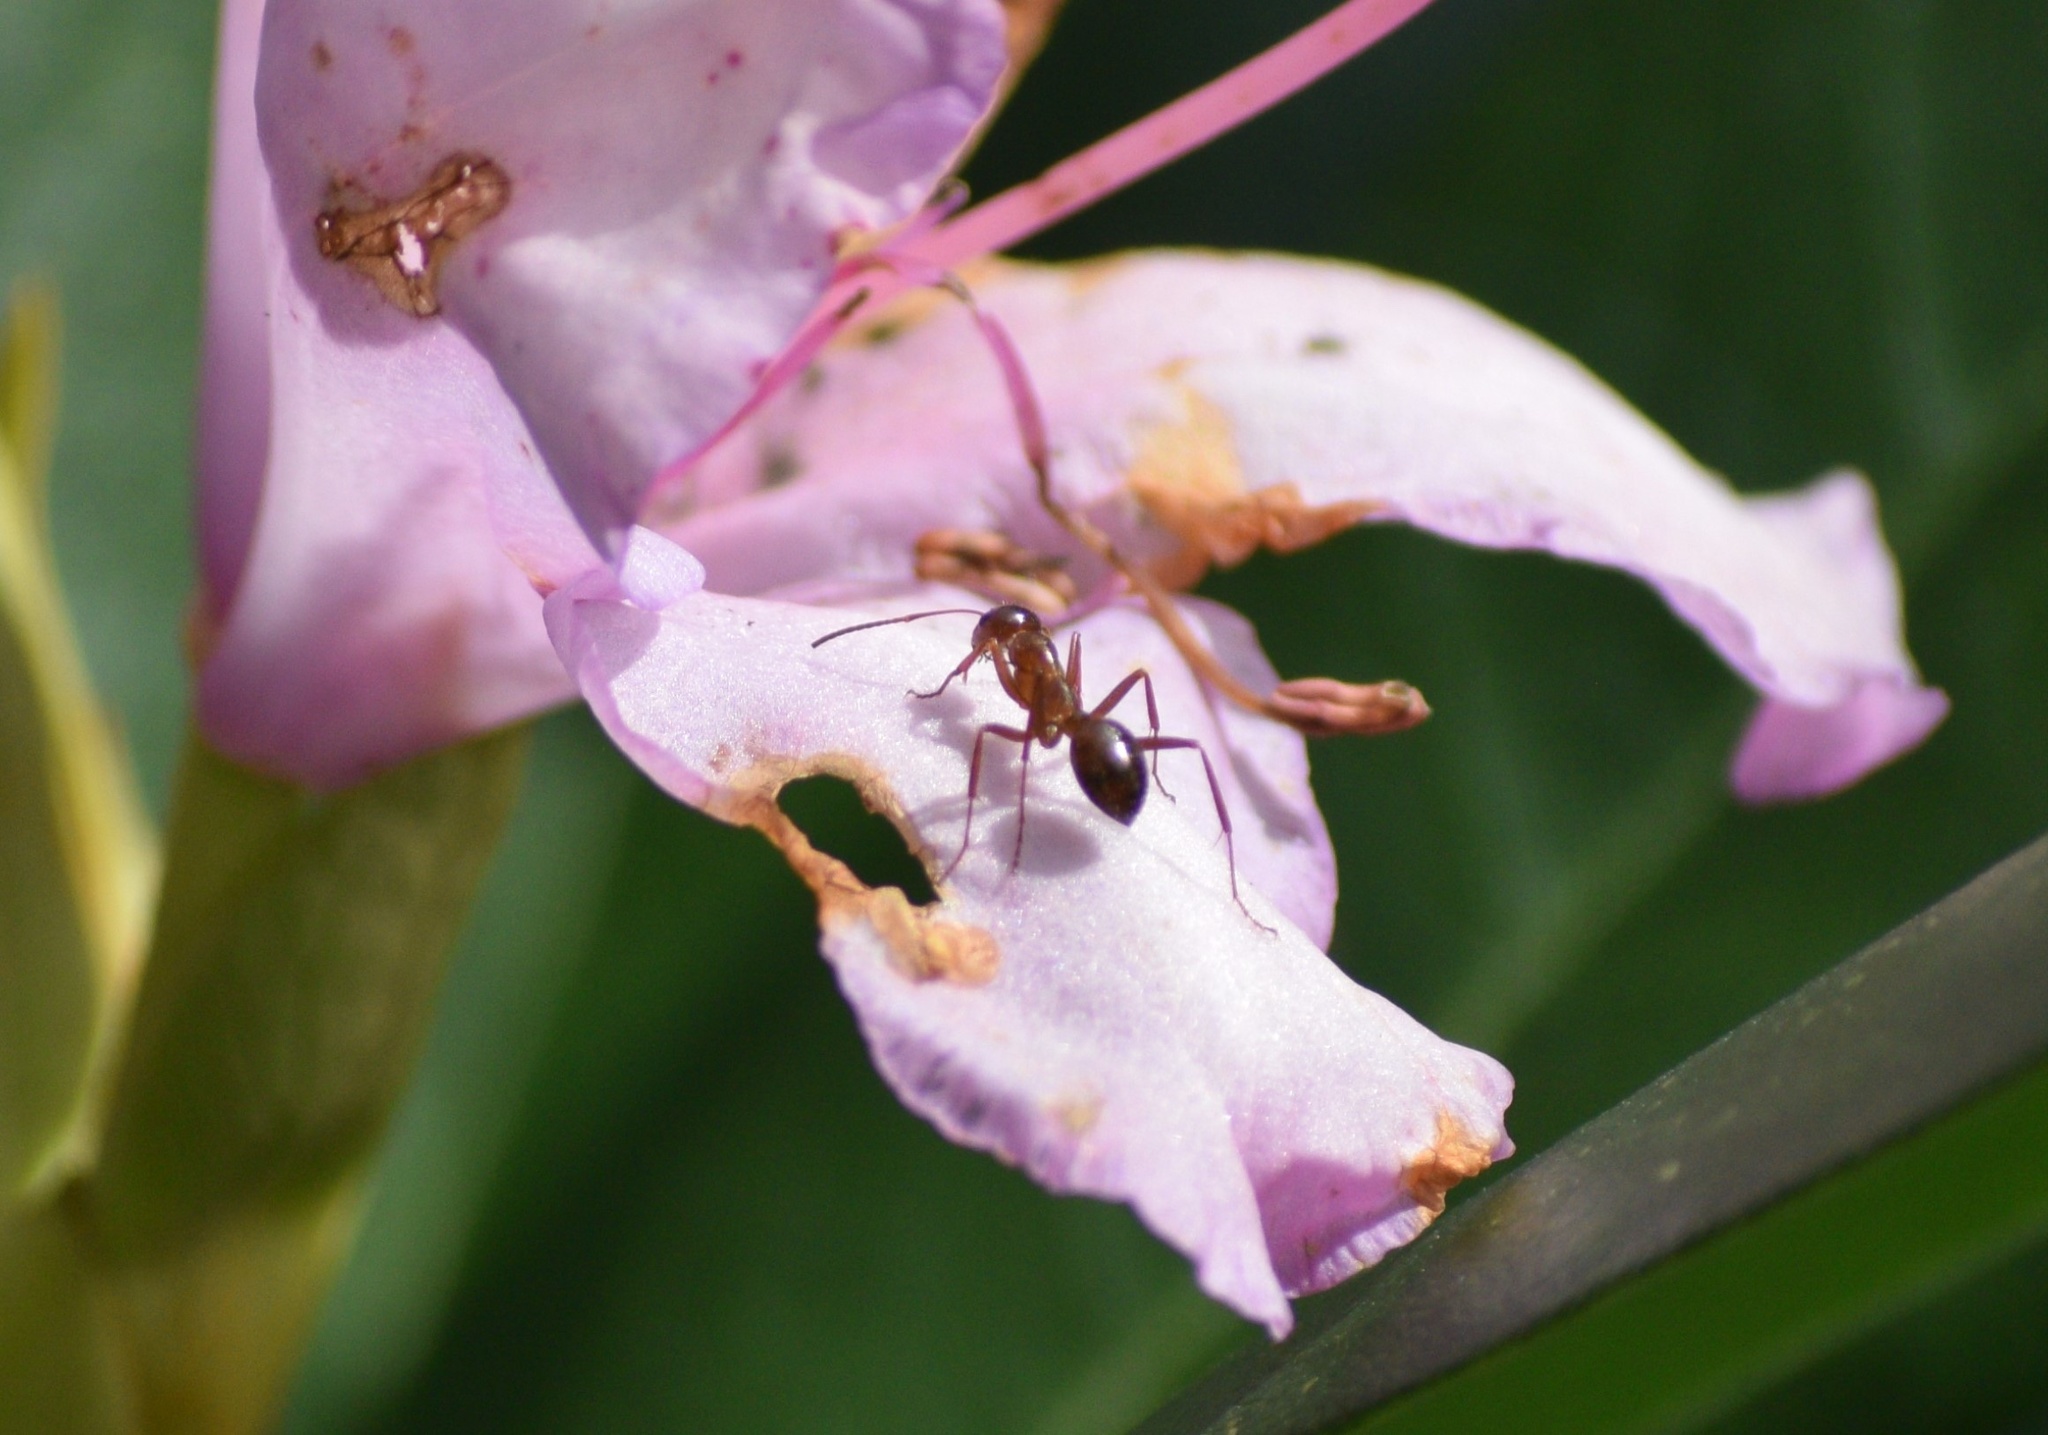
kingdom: Animalia
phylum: Arthropoda
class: Insecta
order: Hymenoptera
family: Formicidae
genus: Formica
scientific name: Formica
